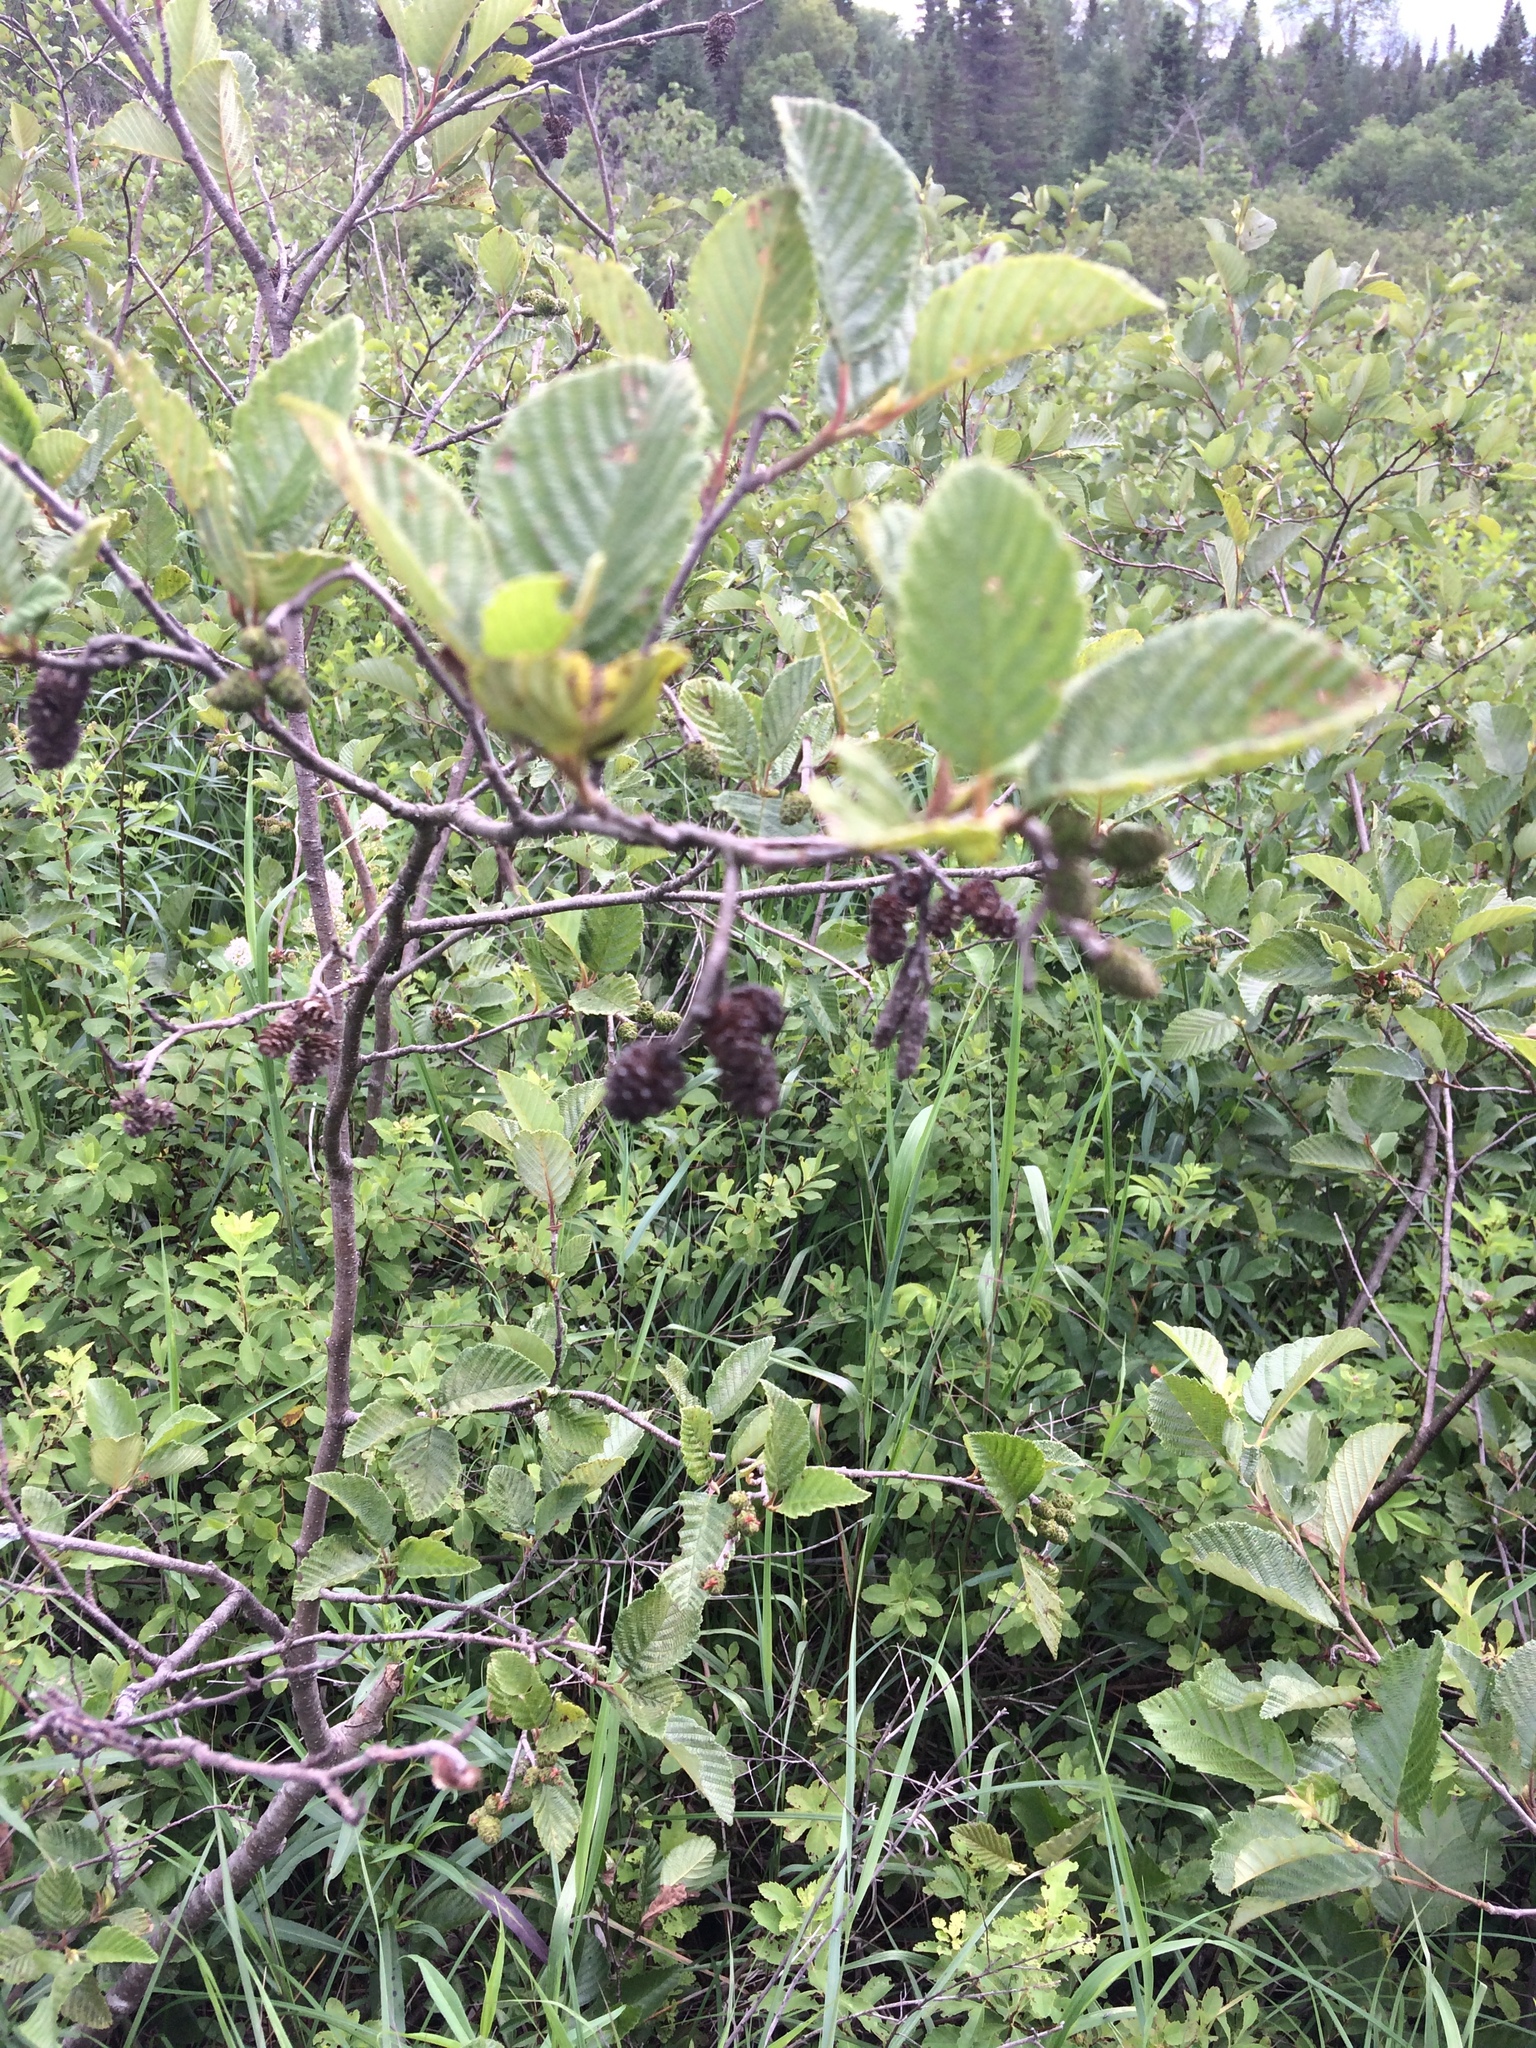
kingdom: Plantae
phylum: Tracheophyta
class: Magnoliopsida
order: Fagales
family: Betulaceae
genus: Alnus
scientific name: Alnus incana
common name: Grey alder
